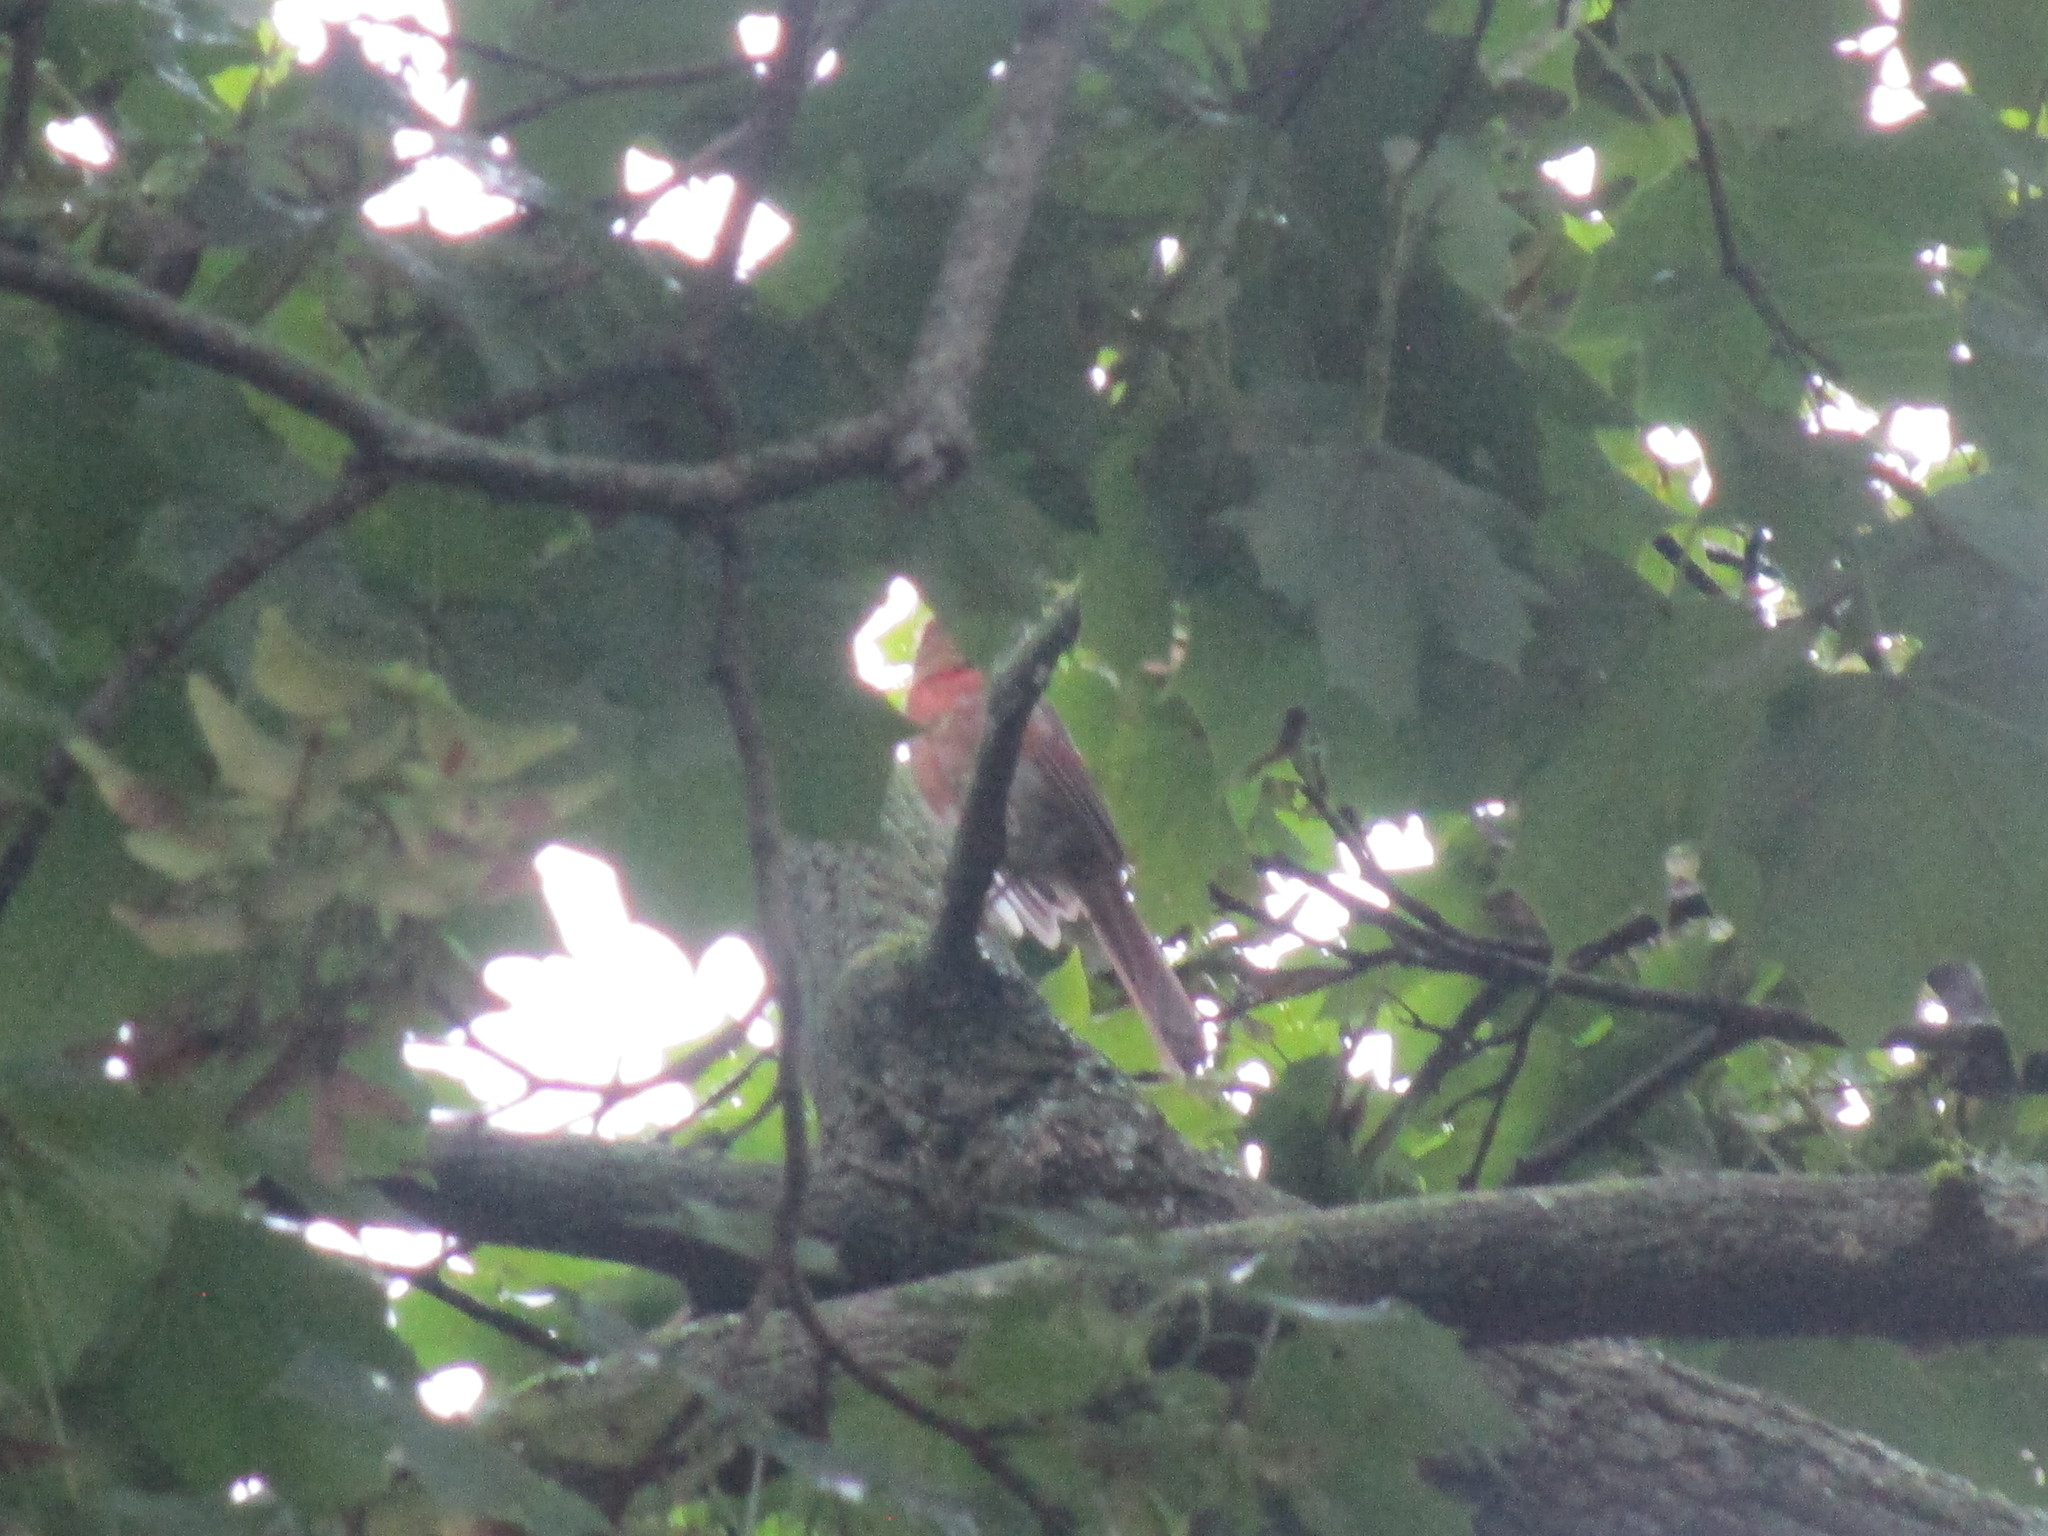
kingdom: Animalia
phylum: Chordata
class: Aves
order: Passeriformes
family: Cardinalidae
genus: Cardinalis
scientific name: Cardinalis cardinalis
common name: Northern cardinal
